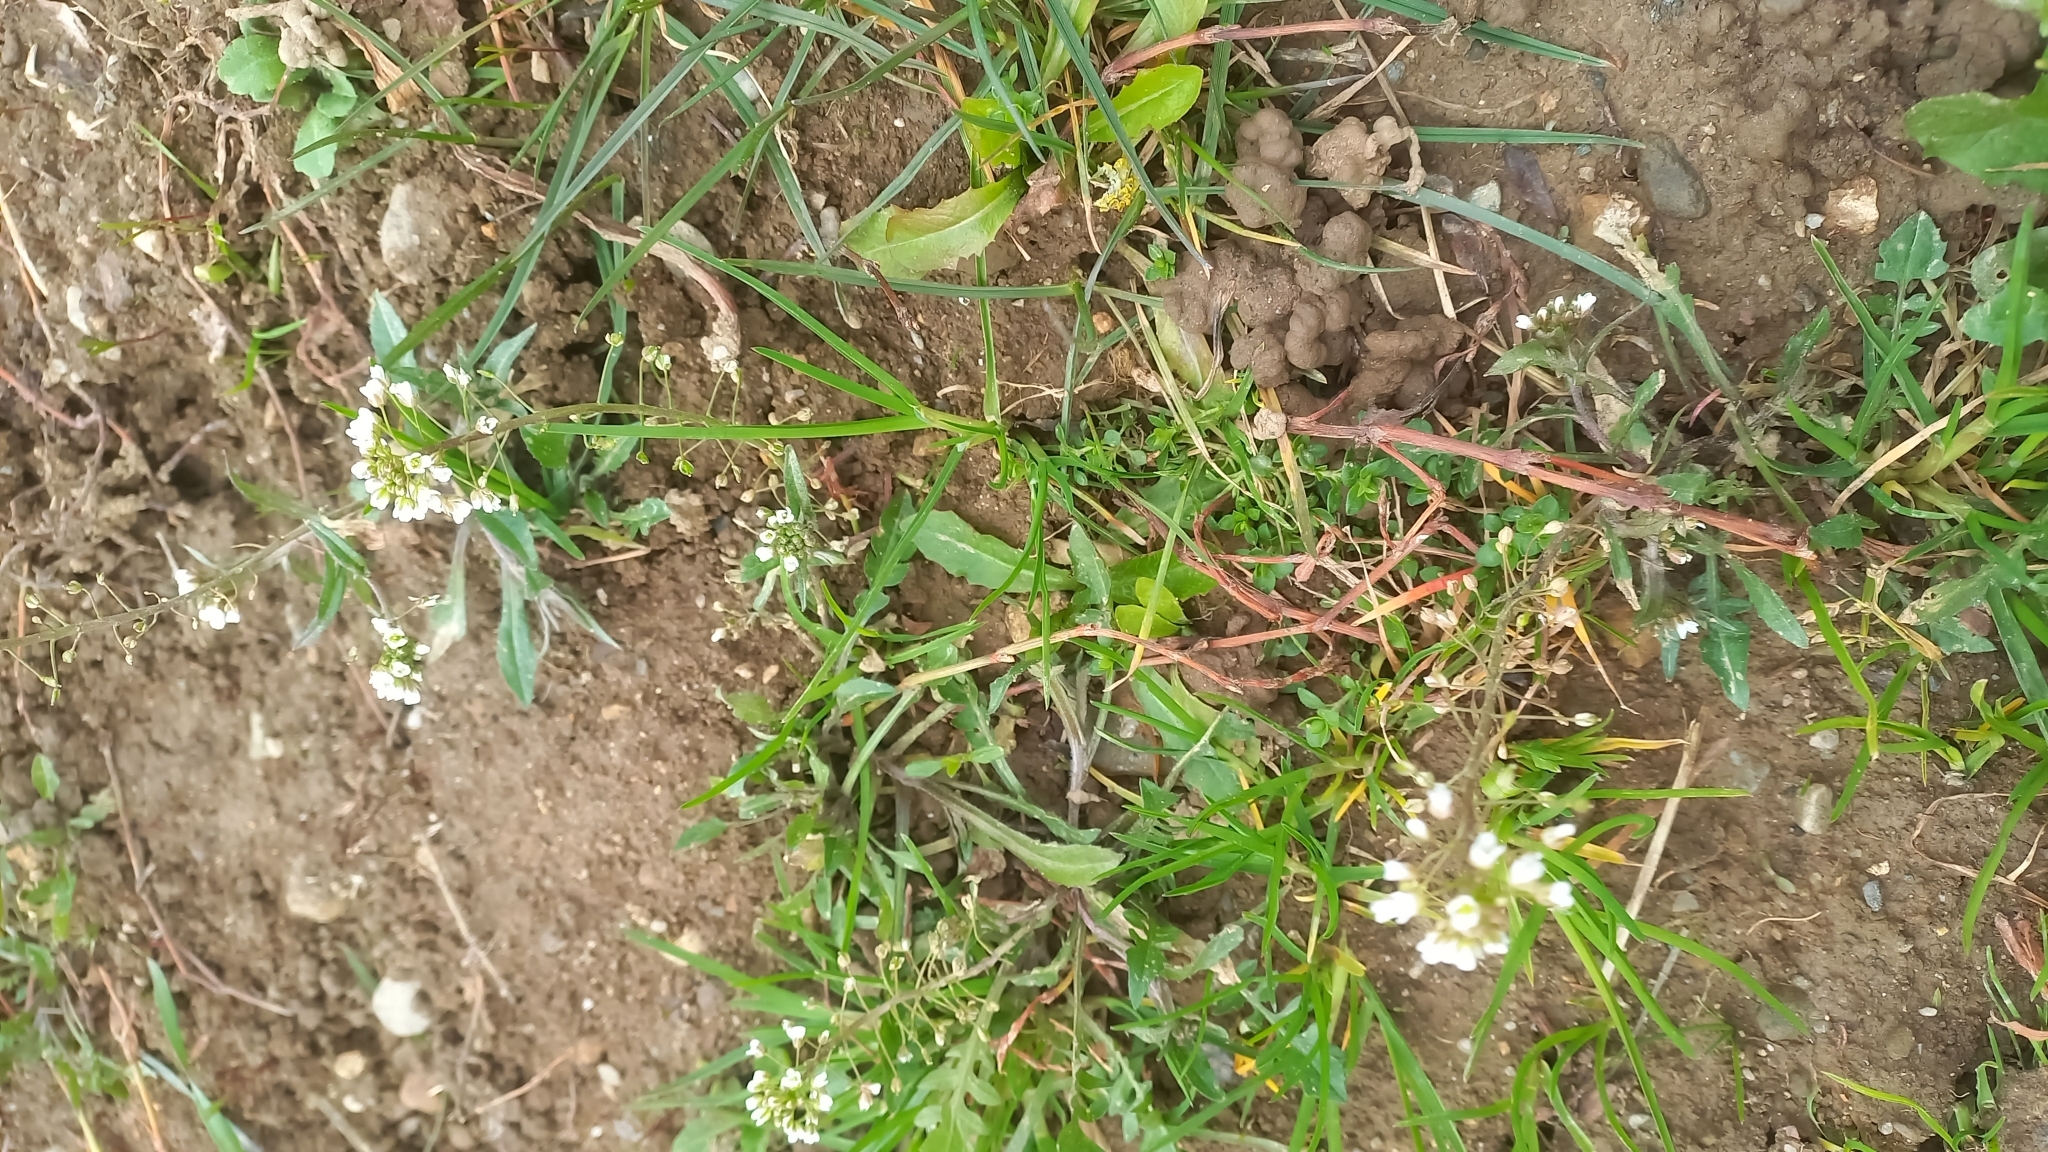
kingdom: Plantae
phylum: Tracheophyta
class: Magnoliopsida
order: Brassicales
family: Brassicaceae
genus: Capsella
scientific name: Capsella bursa-pastoris
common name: Shepherd's purse
